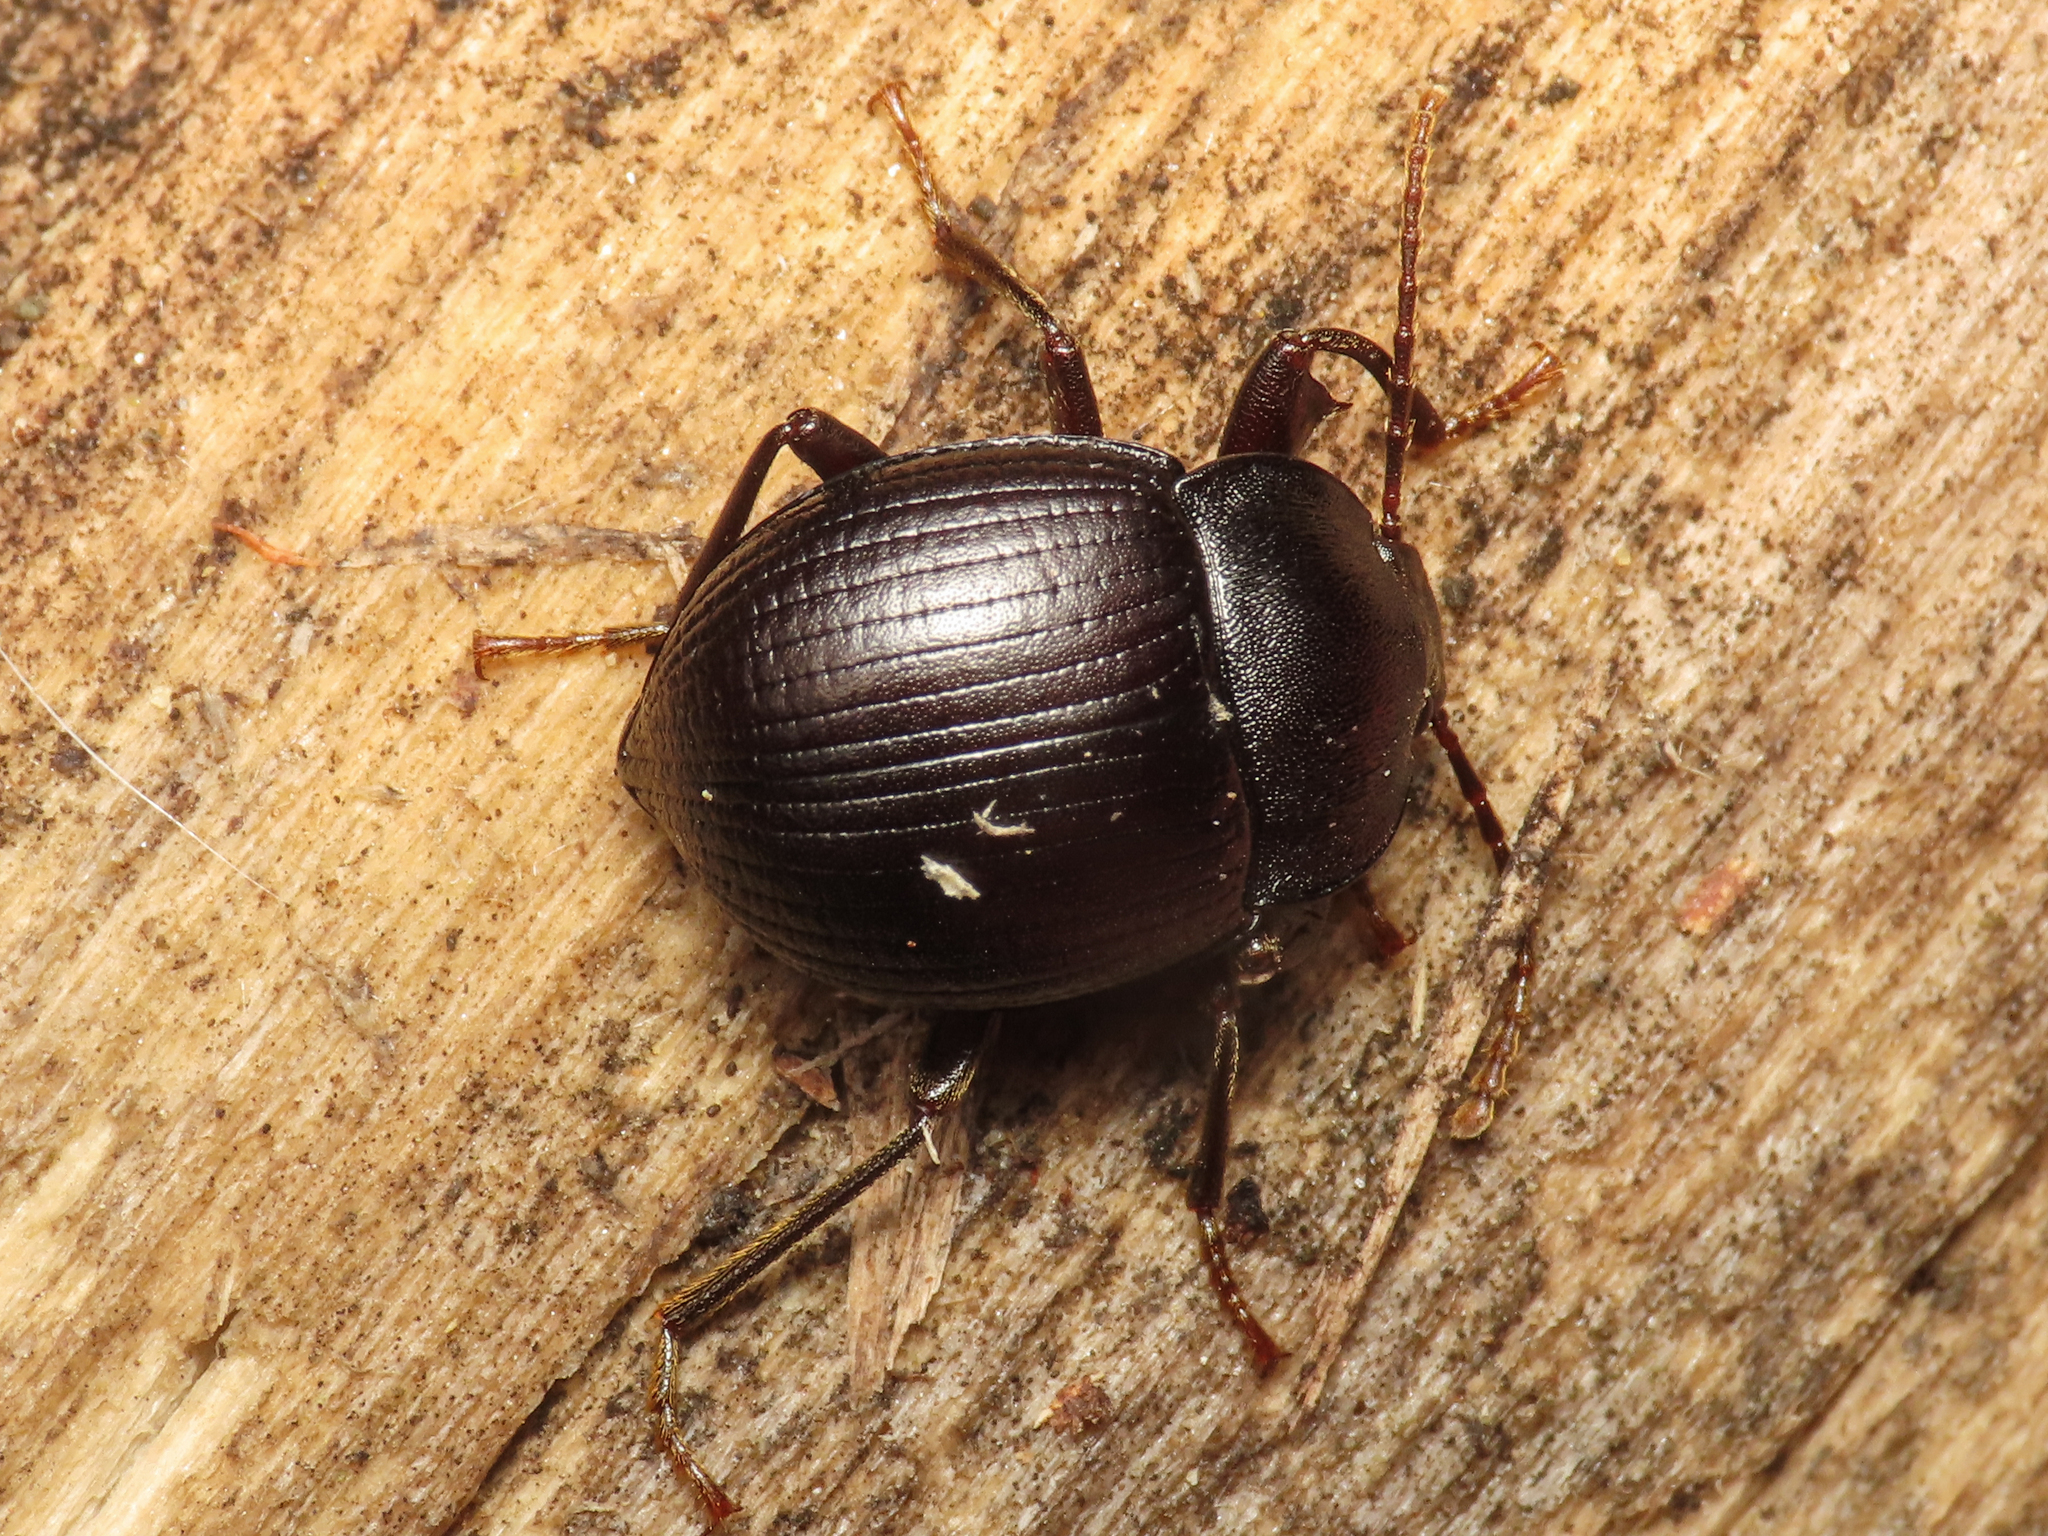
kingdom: Animalia
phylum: Arthropoda
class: Insecta
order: Coleoptera
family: Tenebrionidae
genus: Accanthopus
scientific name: Accanthopus velikensis
